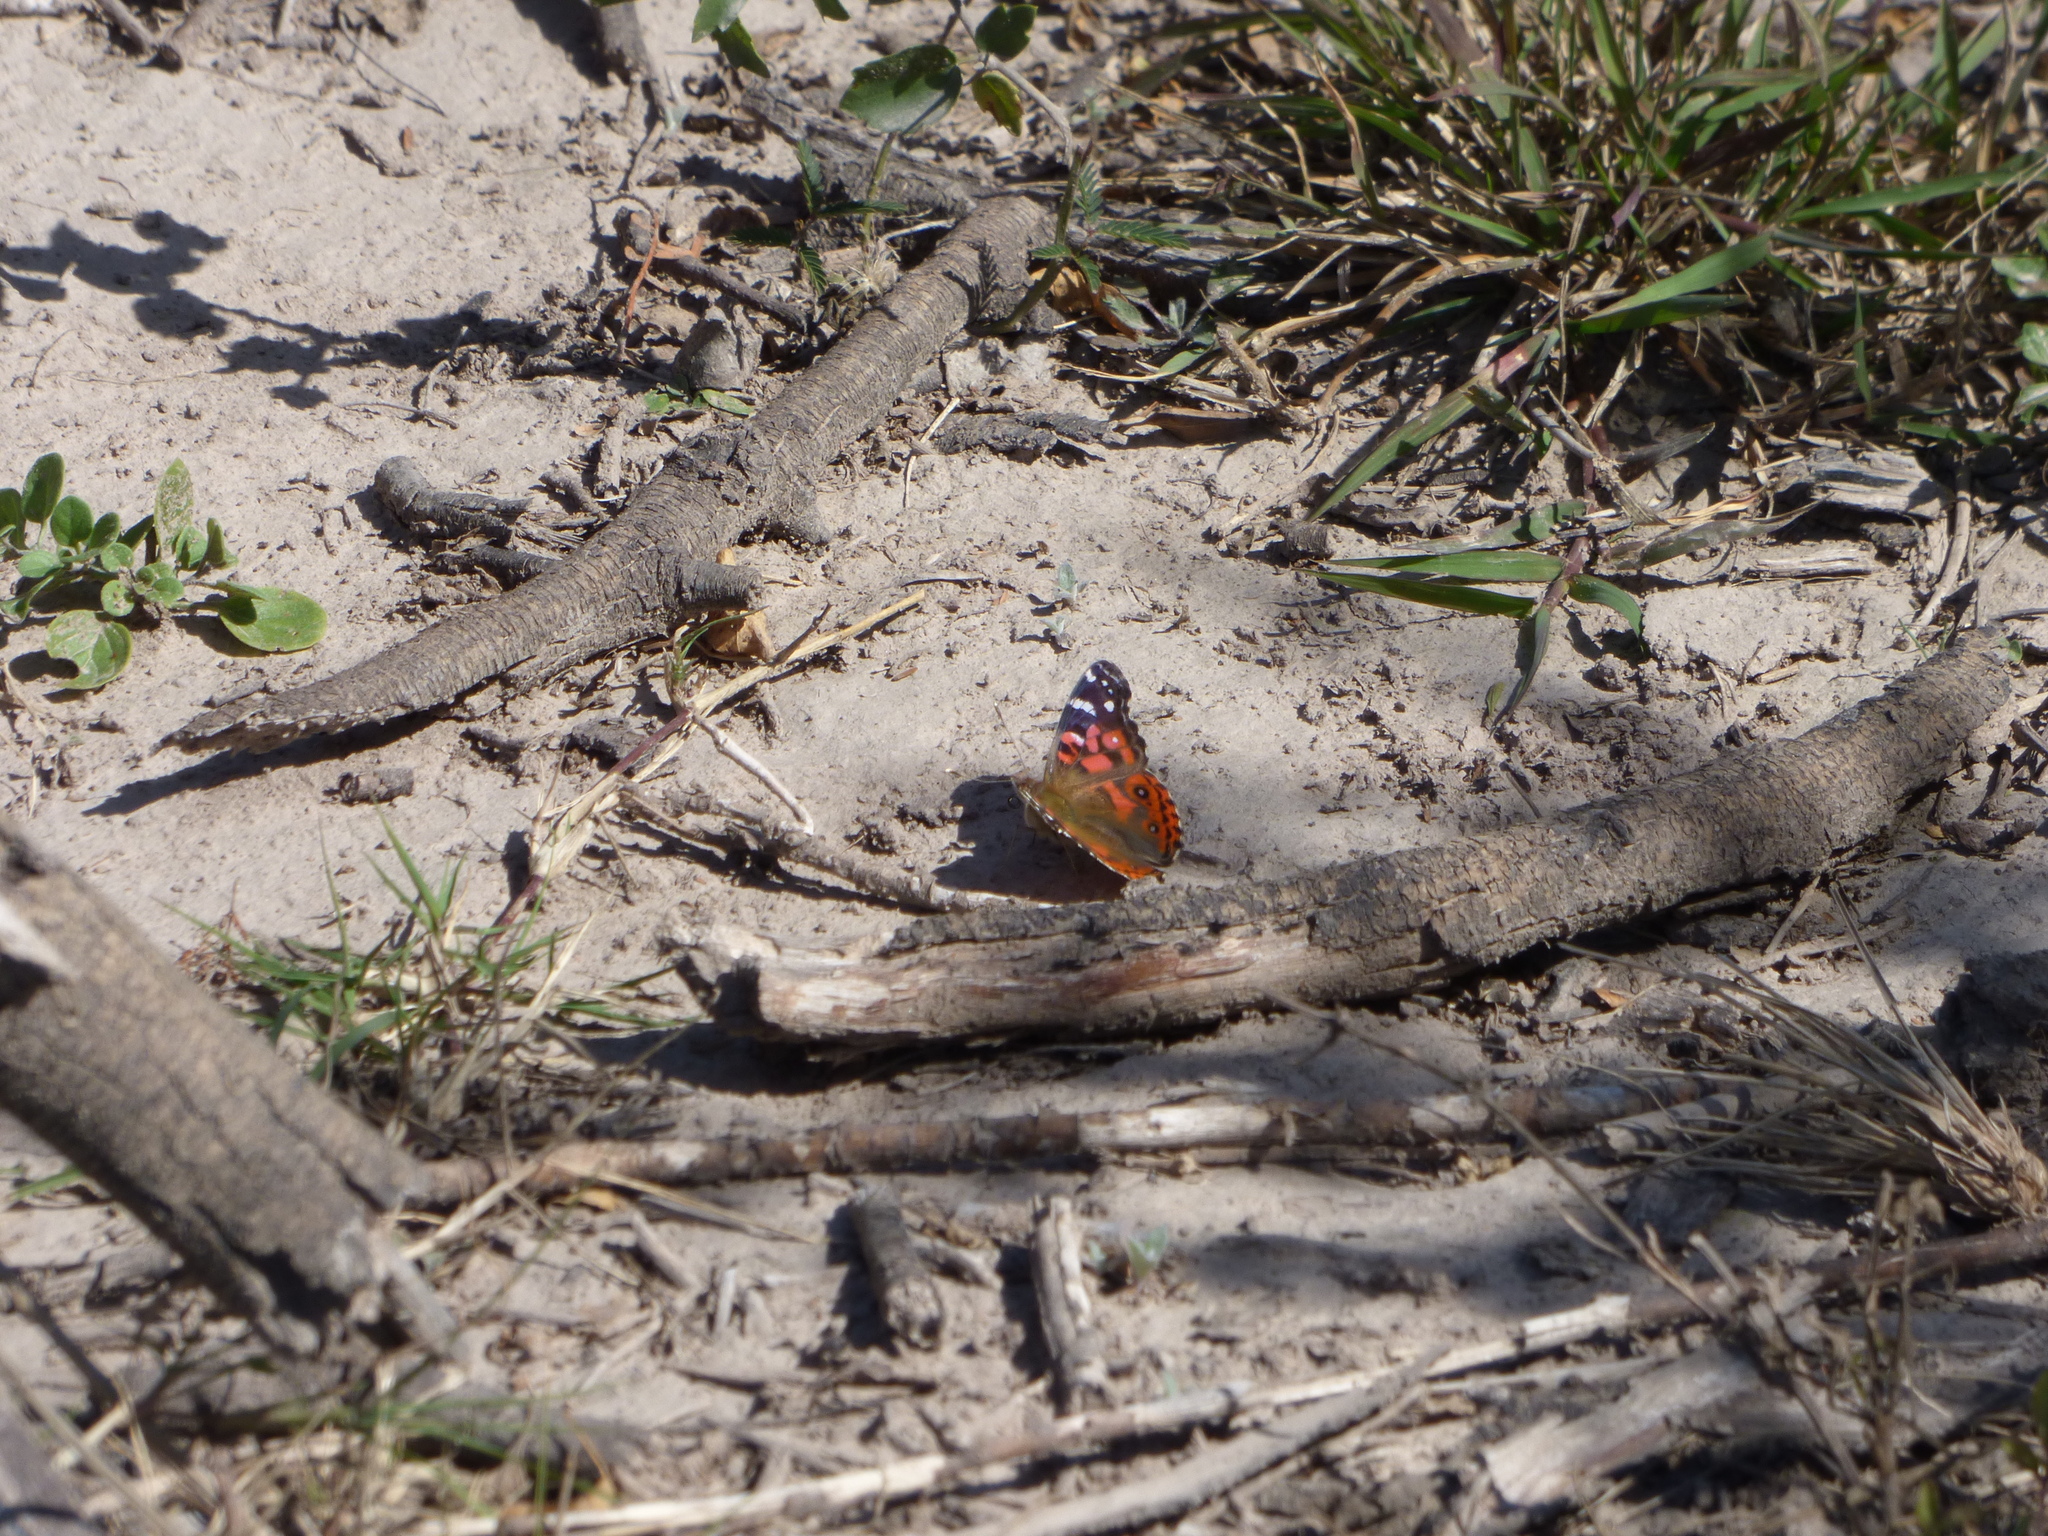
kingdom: Animalia
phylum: Arthropoda
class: Insecta
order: Lepidoptera
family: Nymphalidae
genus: Vanessa
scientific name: Vanessa braziliensis
